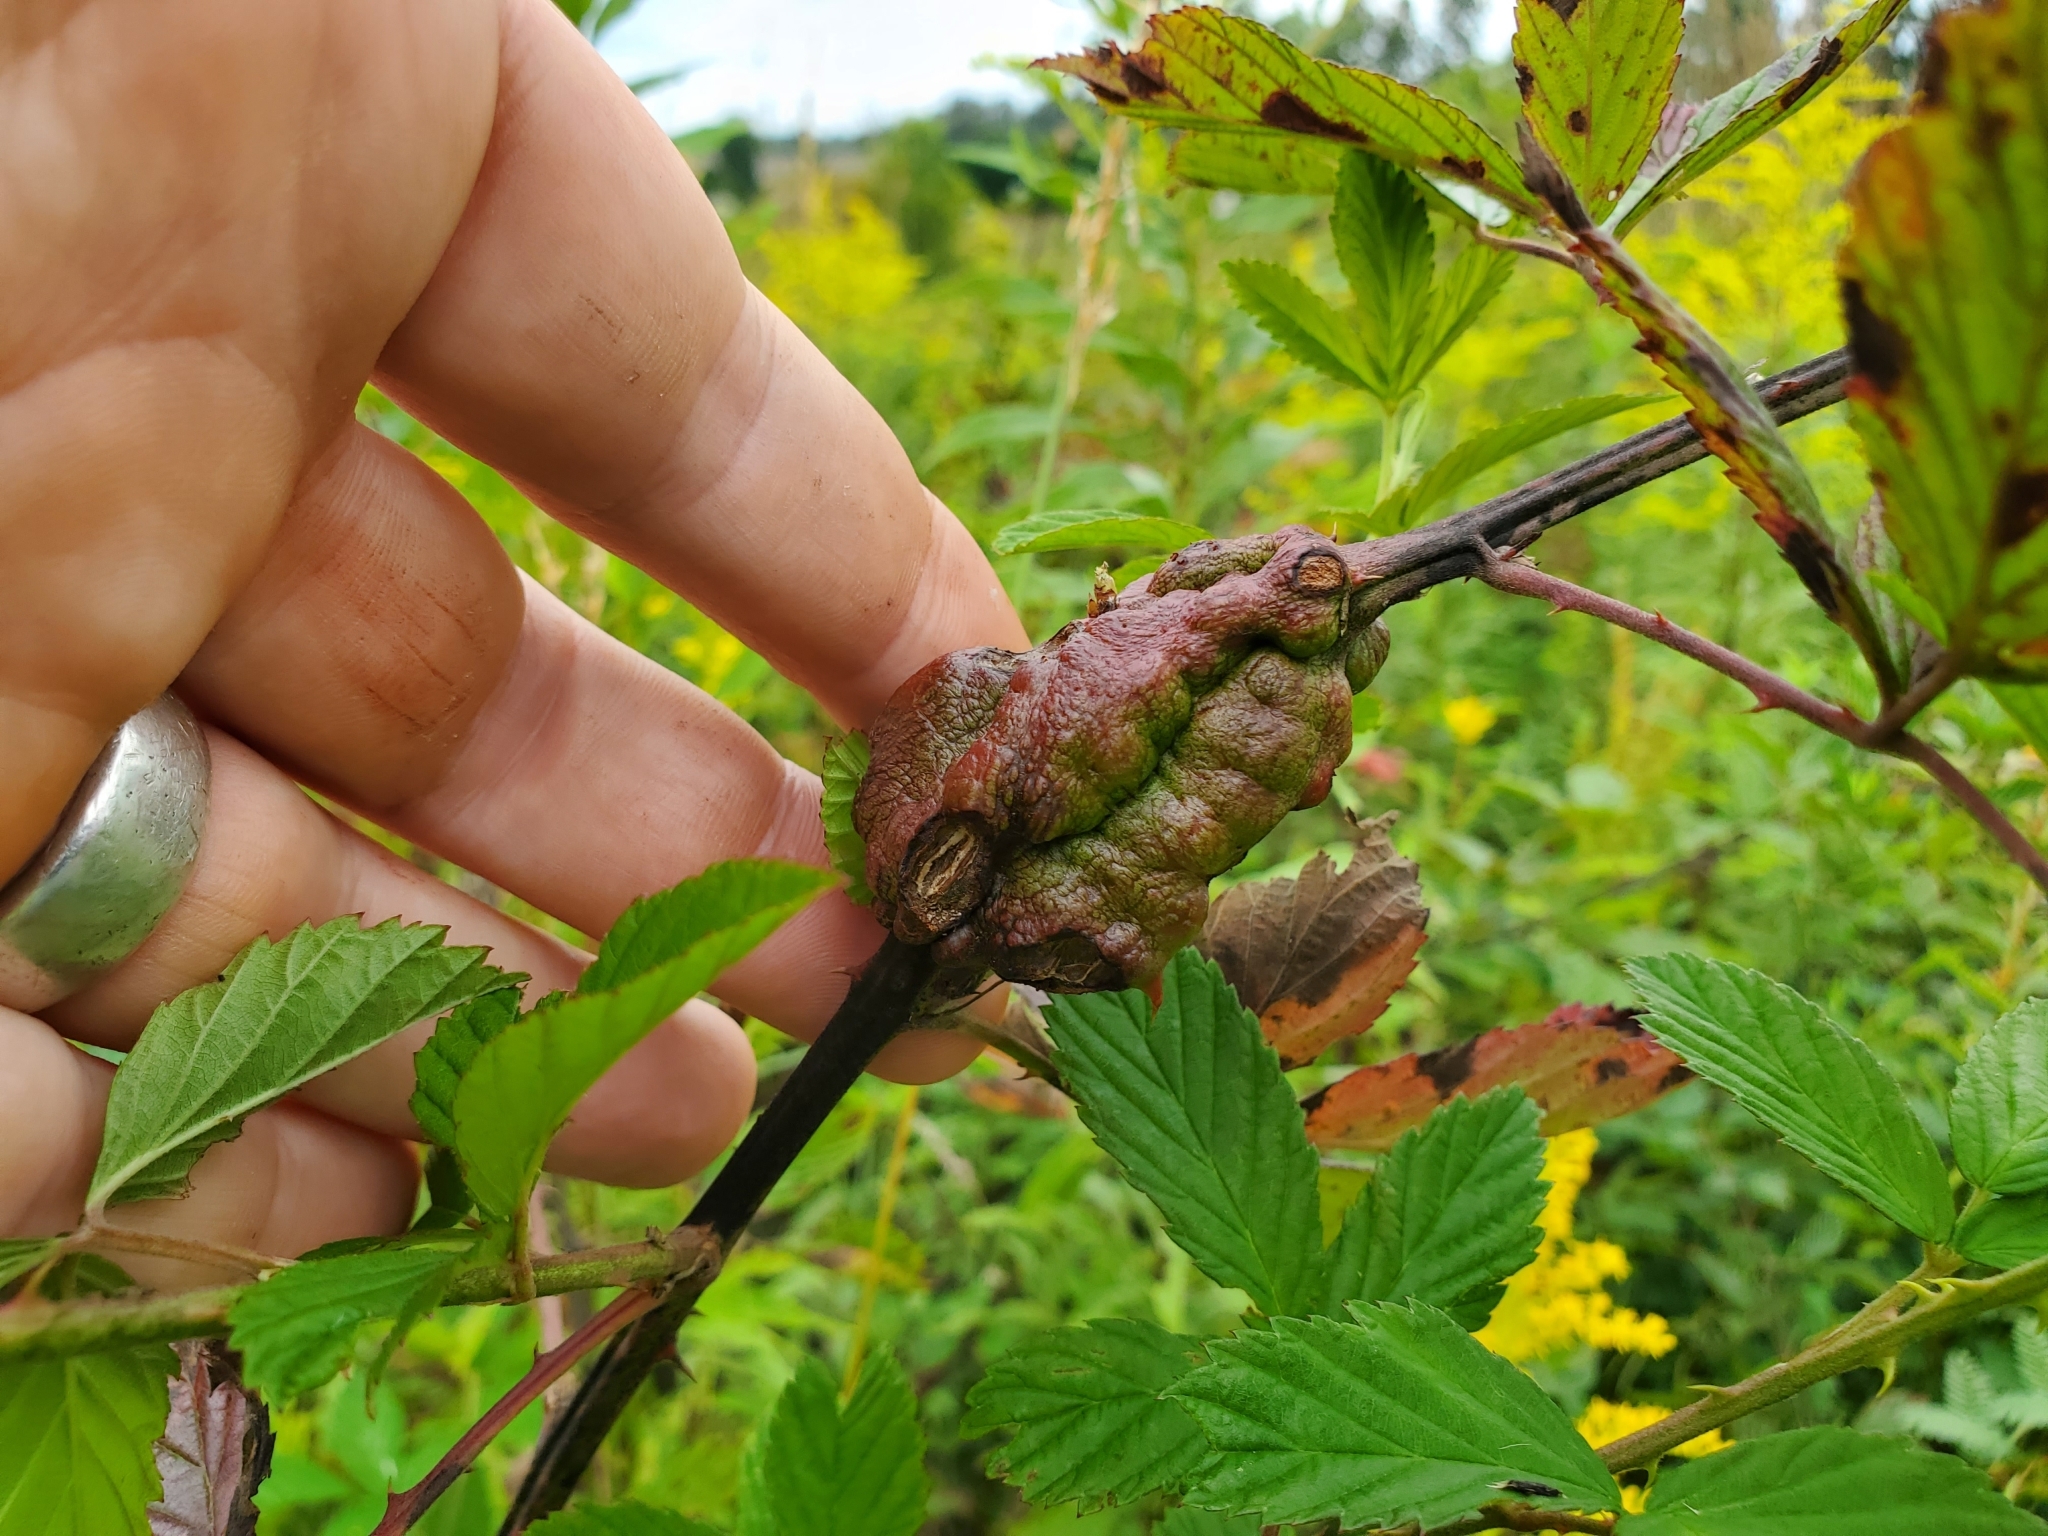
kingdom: Animalia
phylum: Arthropoda
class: Insecta
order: Hymenoptera
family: Cynipidae
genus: Diastrophus
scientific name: Diastrophus
